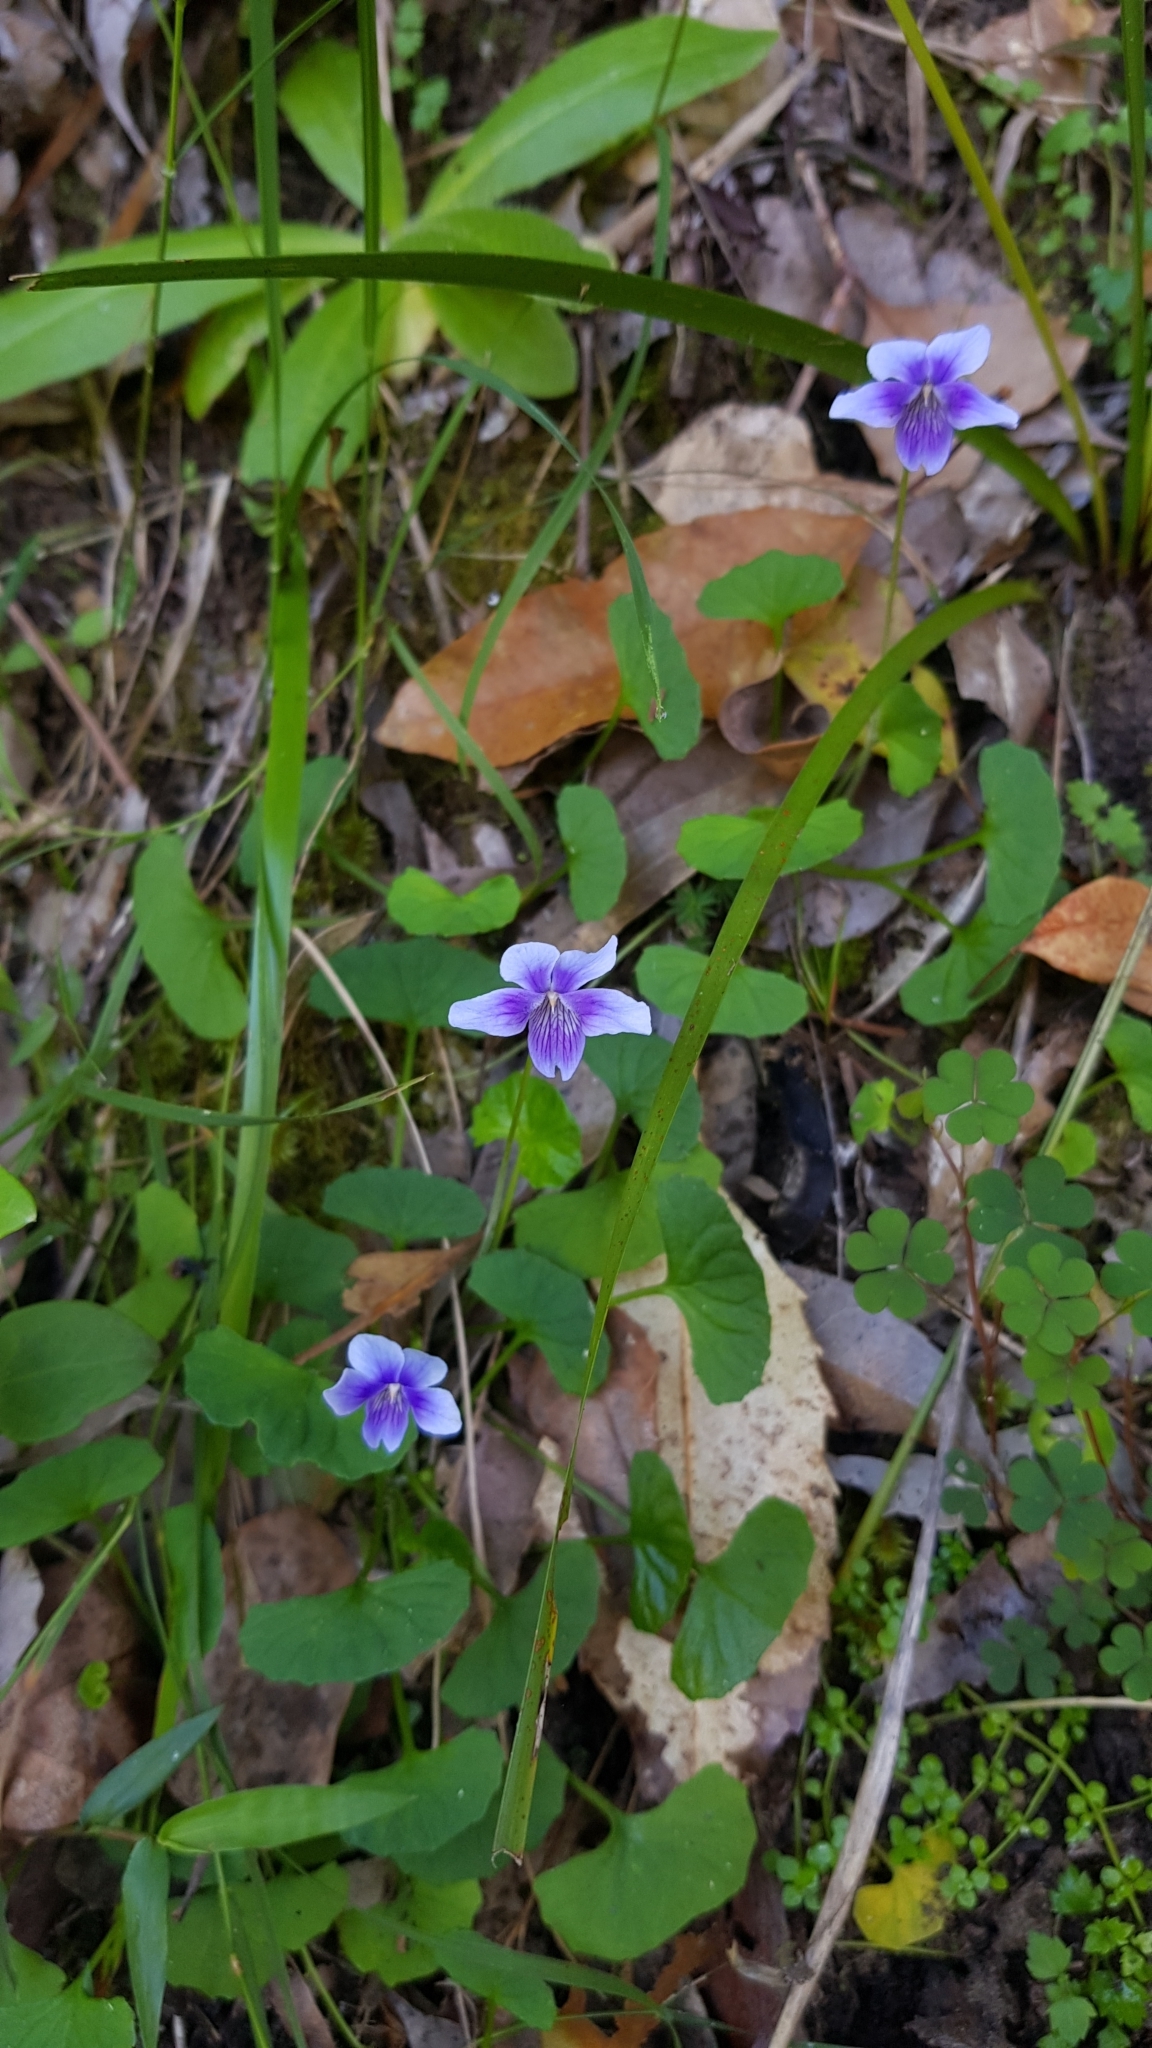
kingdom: Plantae
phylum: Tracheophyta
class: Magnoliopsida
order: Malpighiales
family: Violaceae
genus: Viola
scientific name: Viola hederacea
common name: Australian violet
